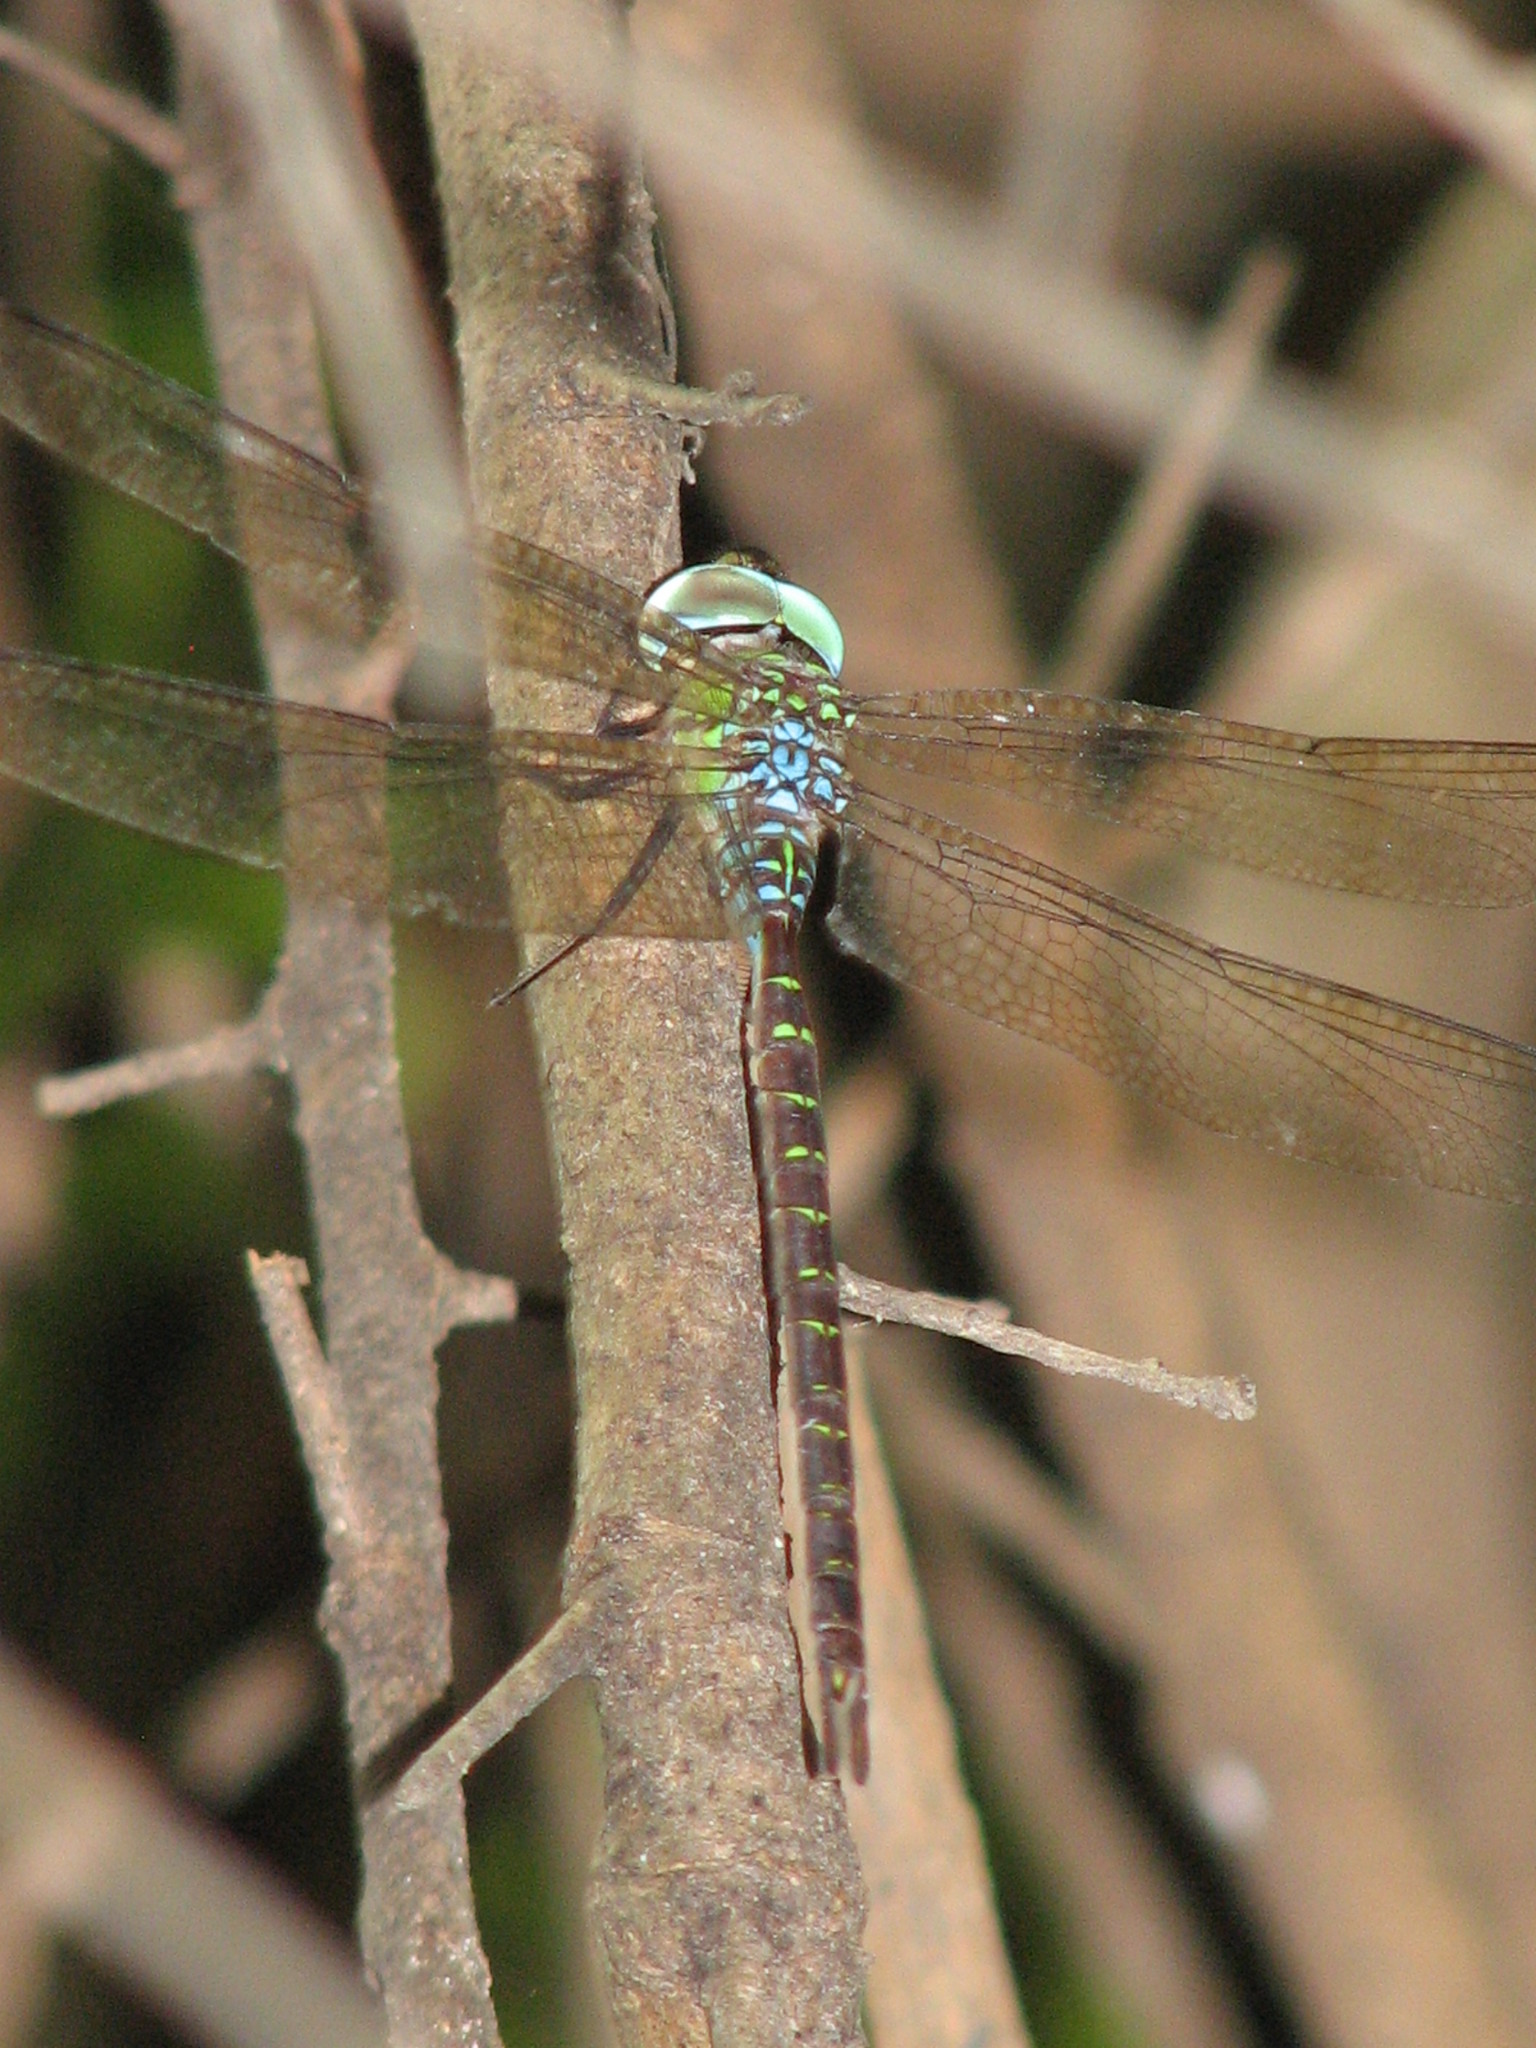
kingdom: Animalia
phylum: Arthropoda
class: Insecta
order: Odonata
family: Aeshnidae
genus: Triacanthagyna
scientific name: Triacanthagyna caribbea
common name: Caribbean darner
